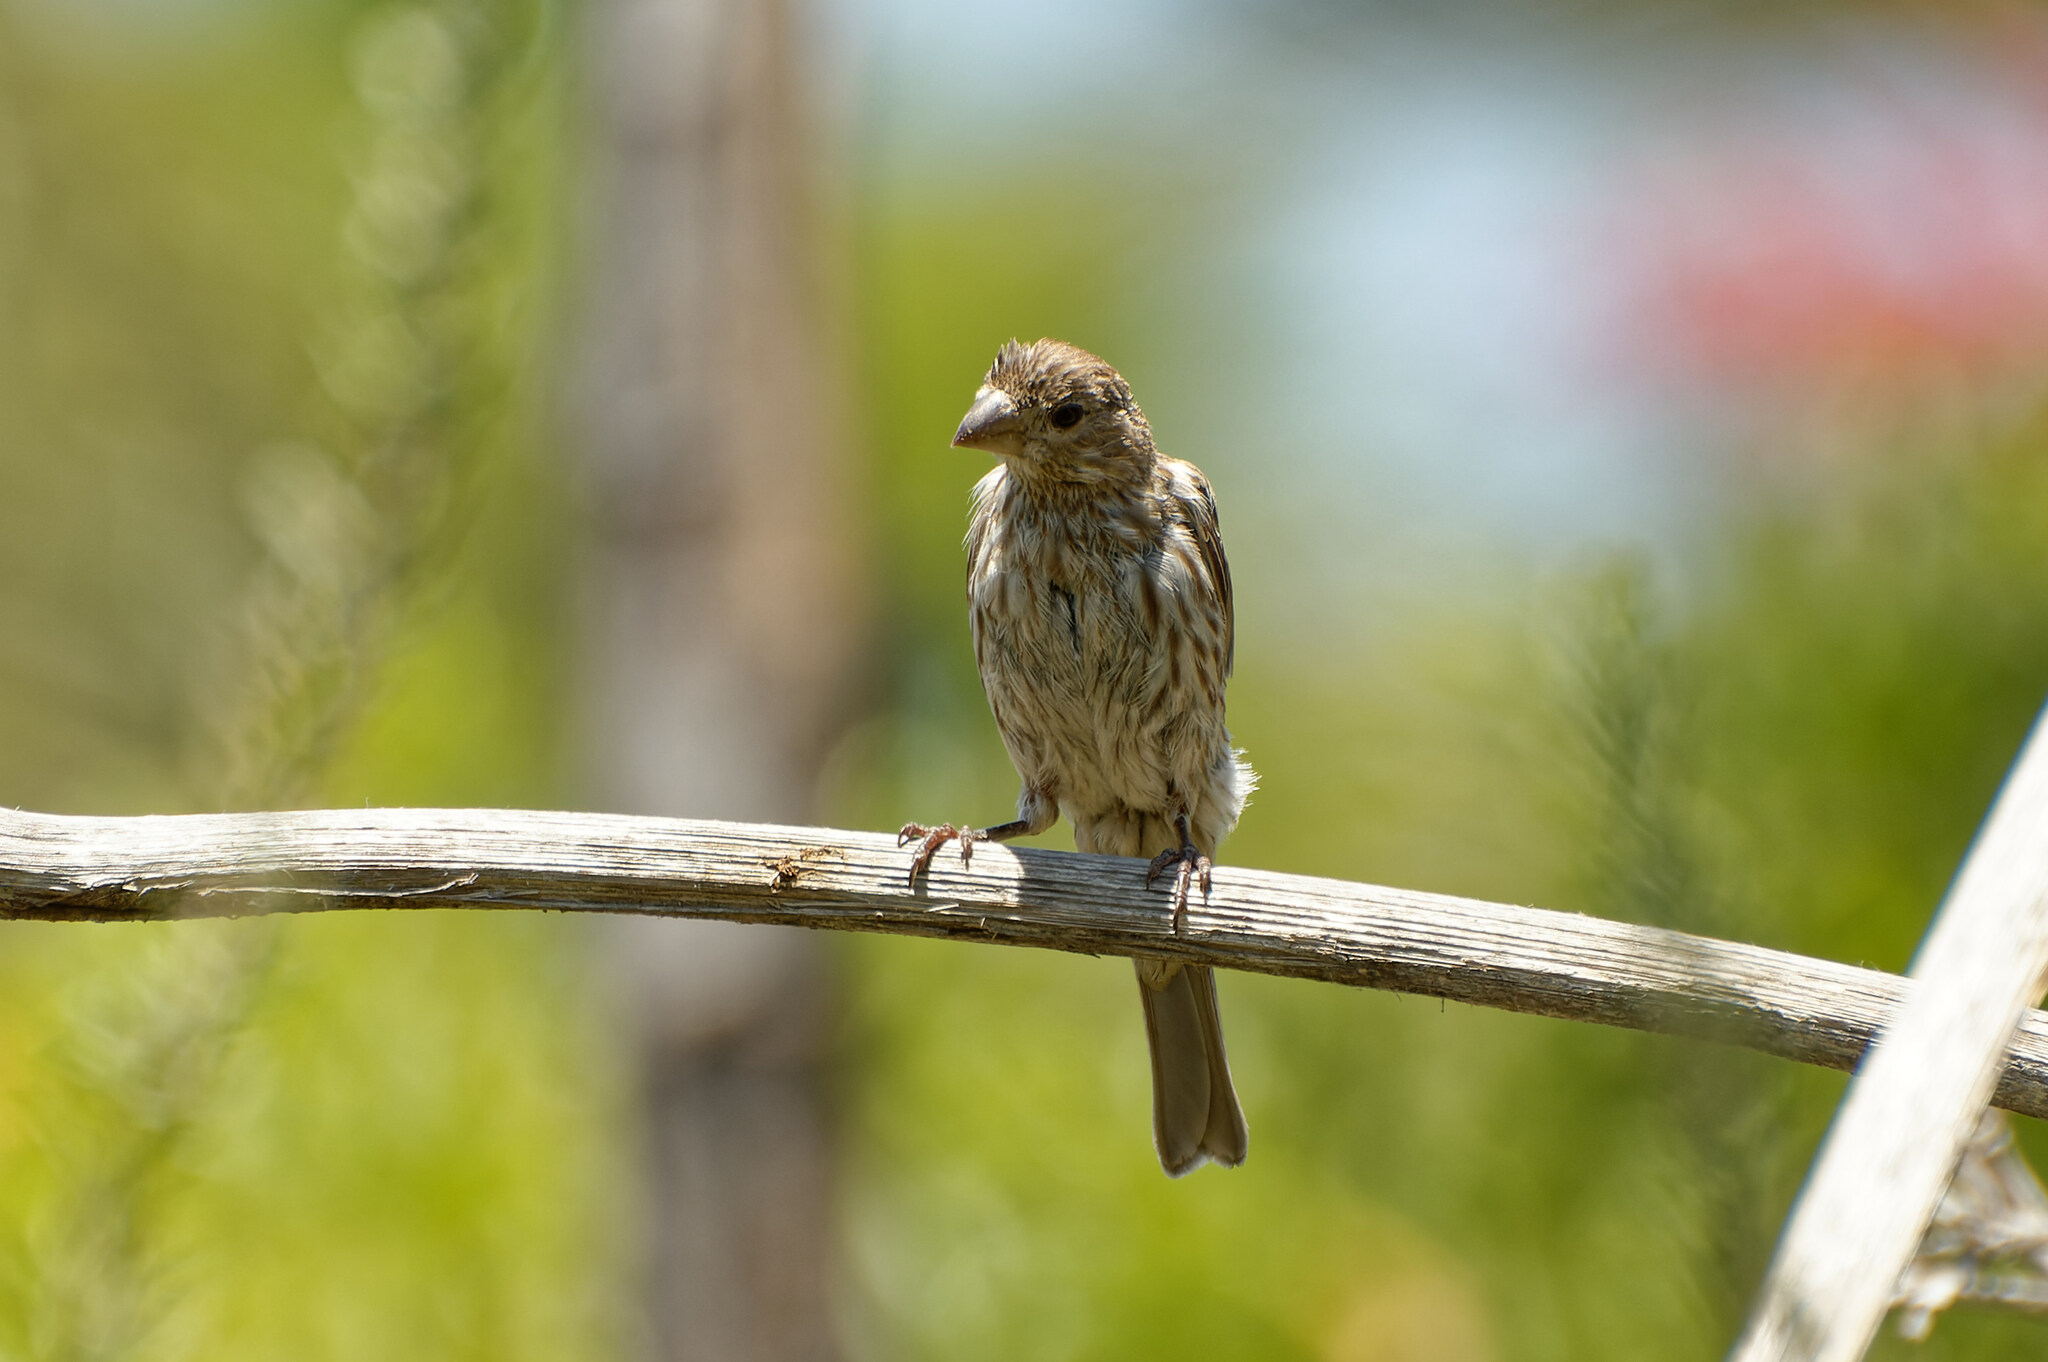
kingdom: Animalia
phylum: Chordata
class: Aves
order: Passeriformes
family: Fringillidae
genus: Haemorhous
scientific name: Haemorhous mexicanus
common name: House finch
